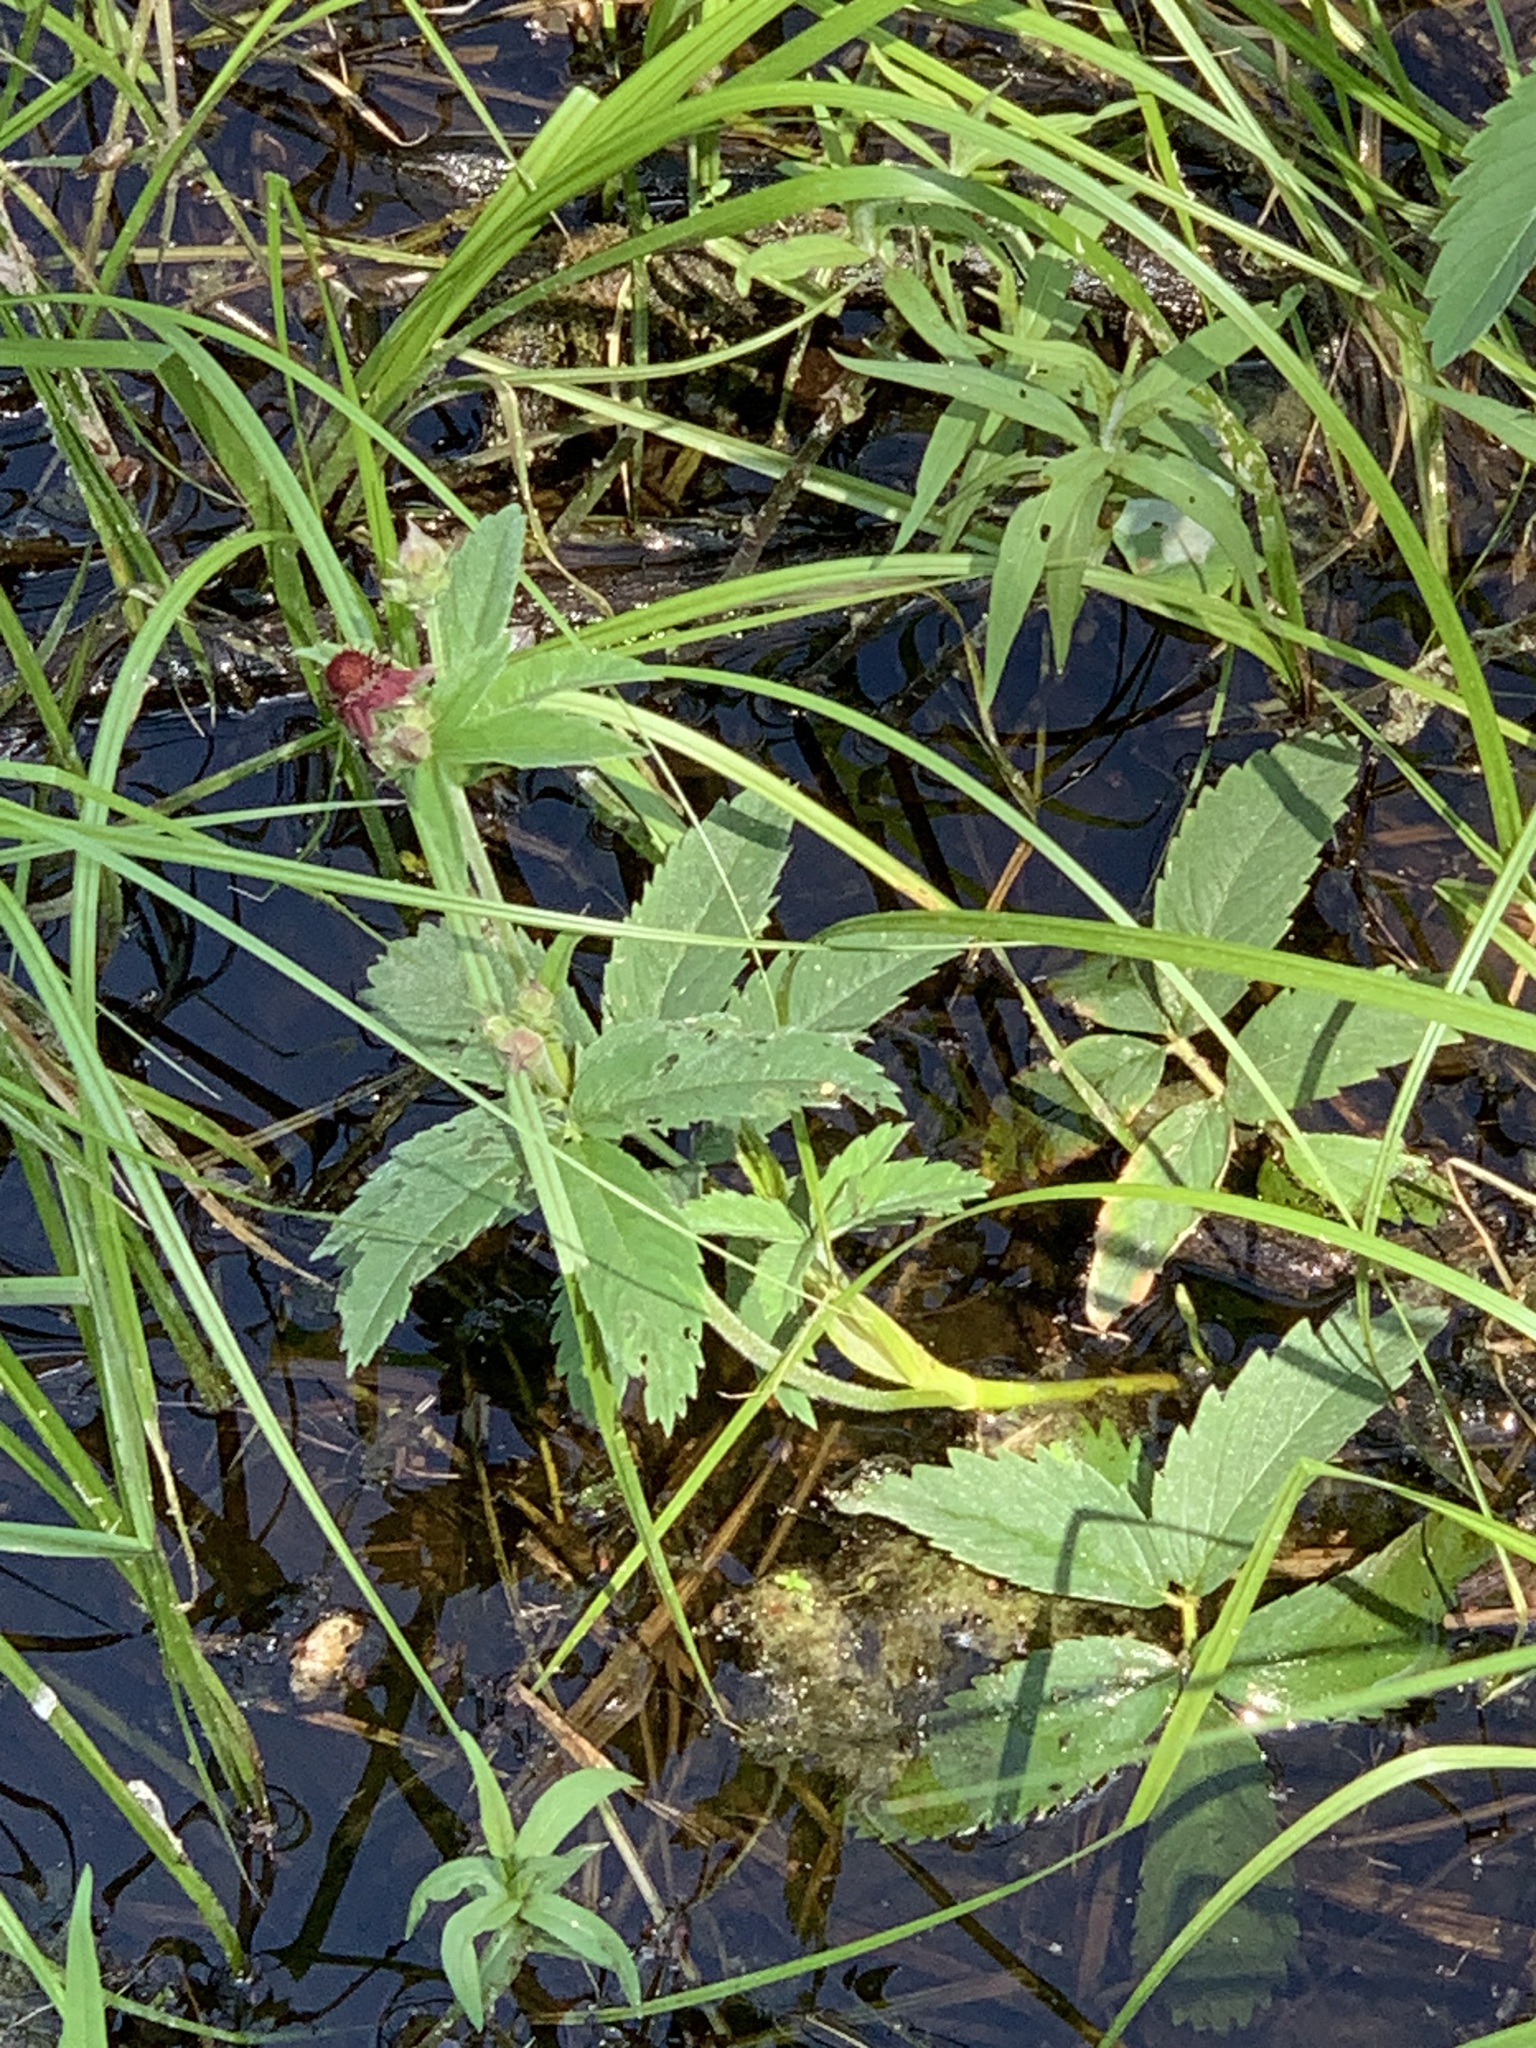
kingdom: Plantae
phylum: Tracheophyta
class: Magnoliopsida
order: Rosales
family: Rosaceae
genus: Comarum
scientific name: Comarum palustre
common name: Marsh cinquefoil
